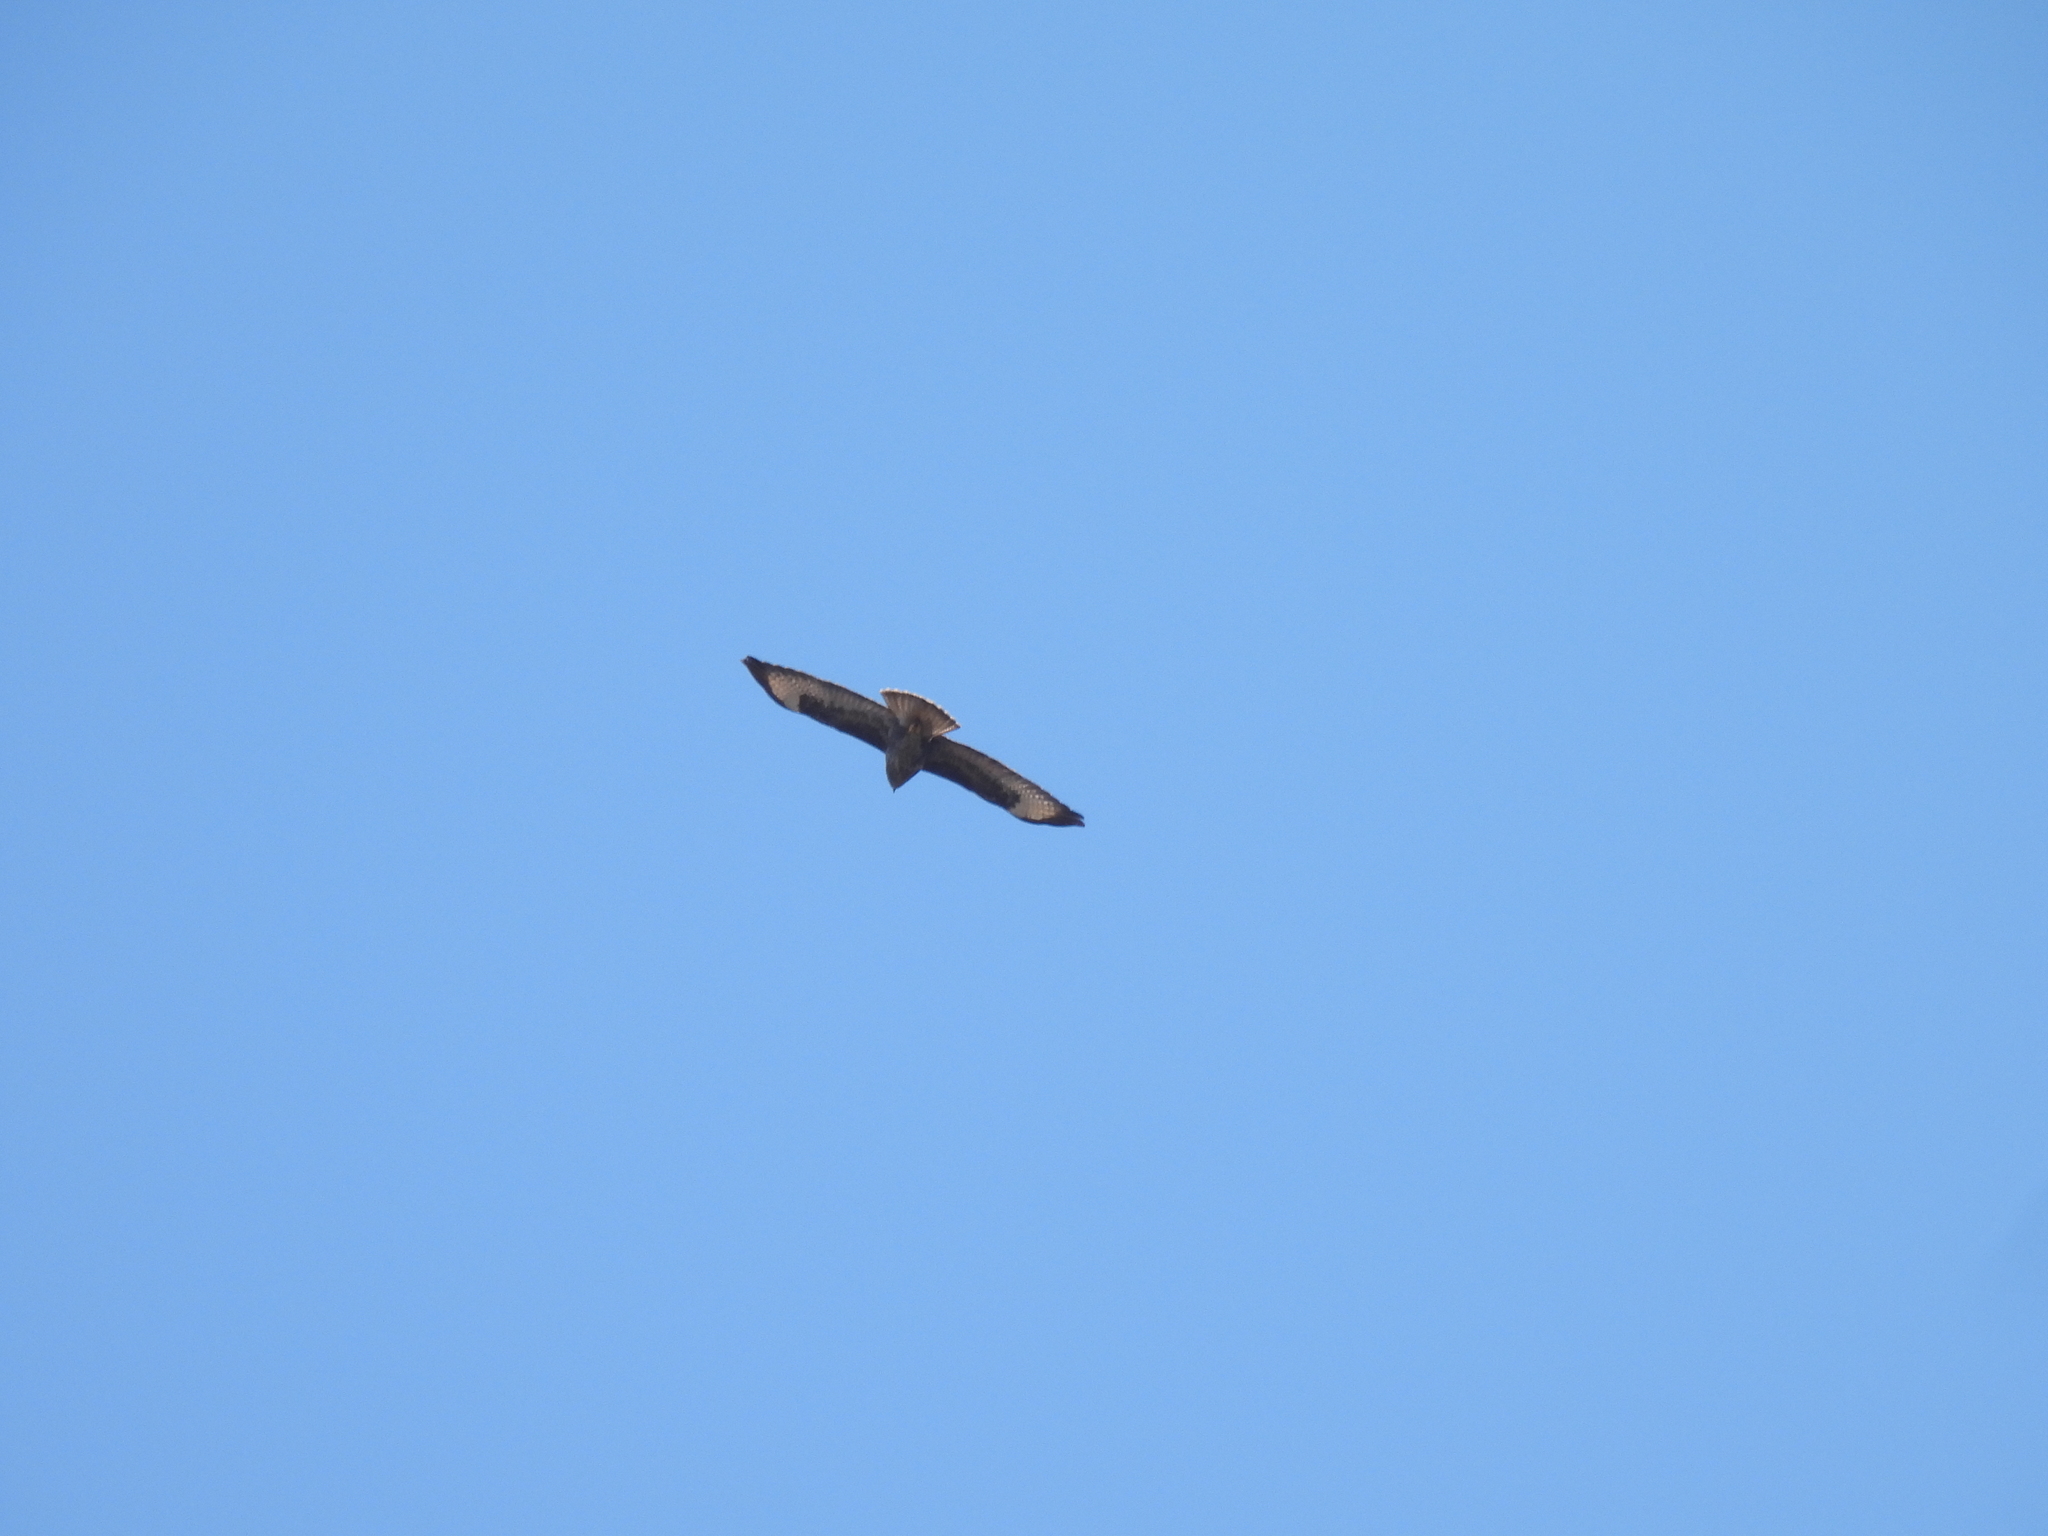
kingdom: Animalia
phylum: Chordata
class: Aves
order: Accipitriformes
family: Accipitridae
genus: Buteo
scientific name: Buteo buteo
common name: Common buzzard
